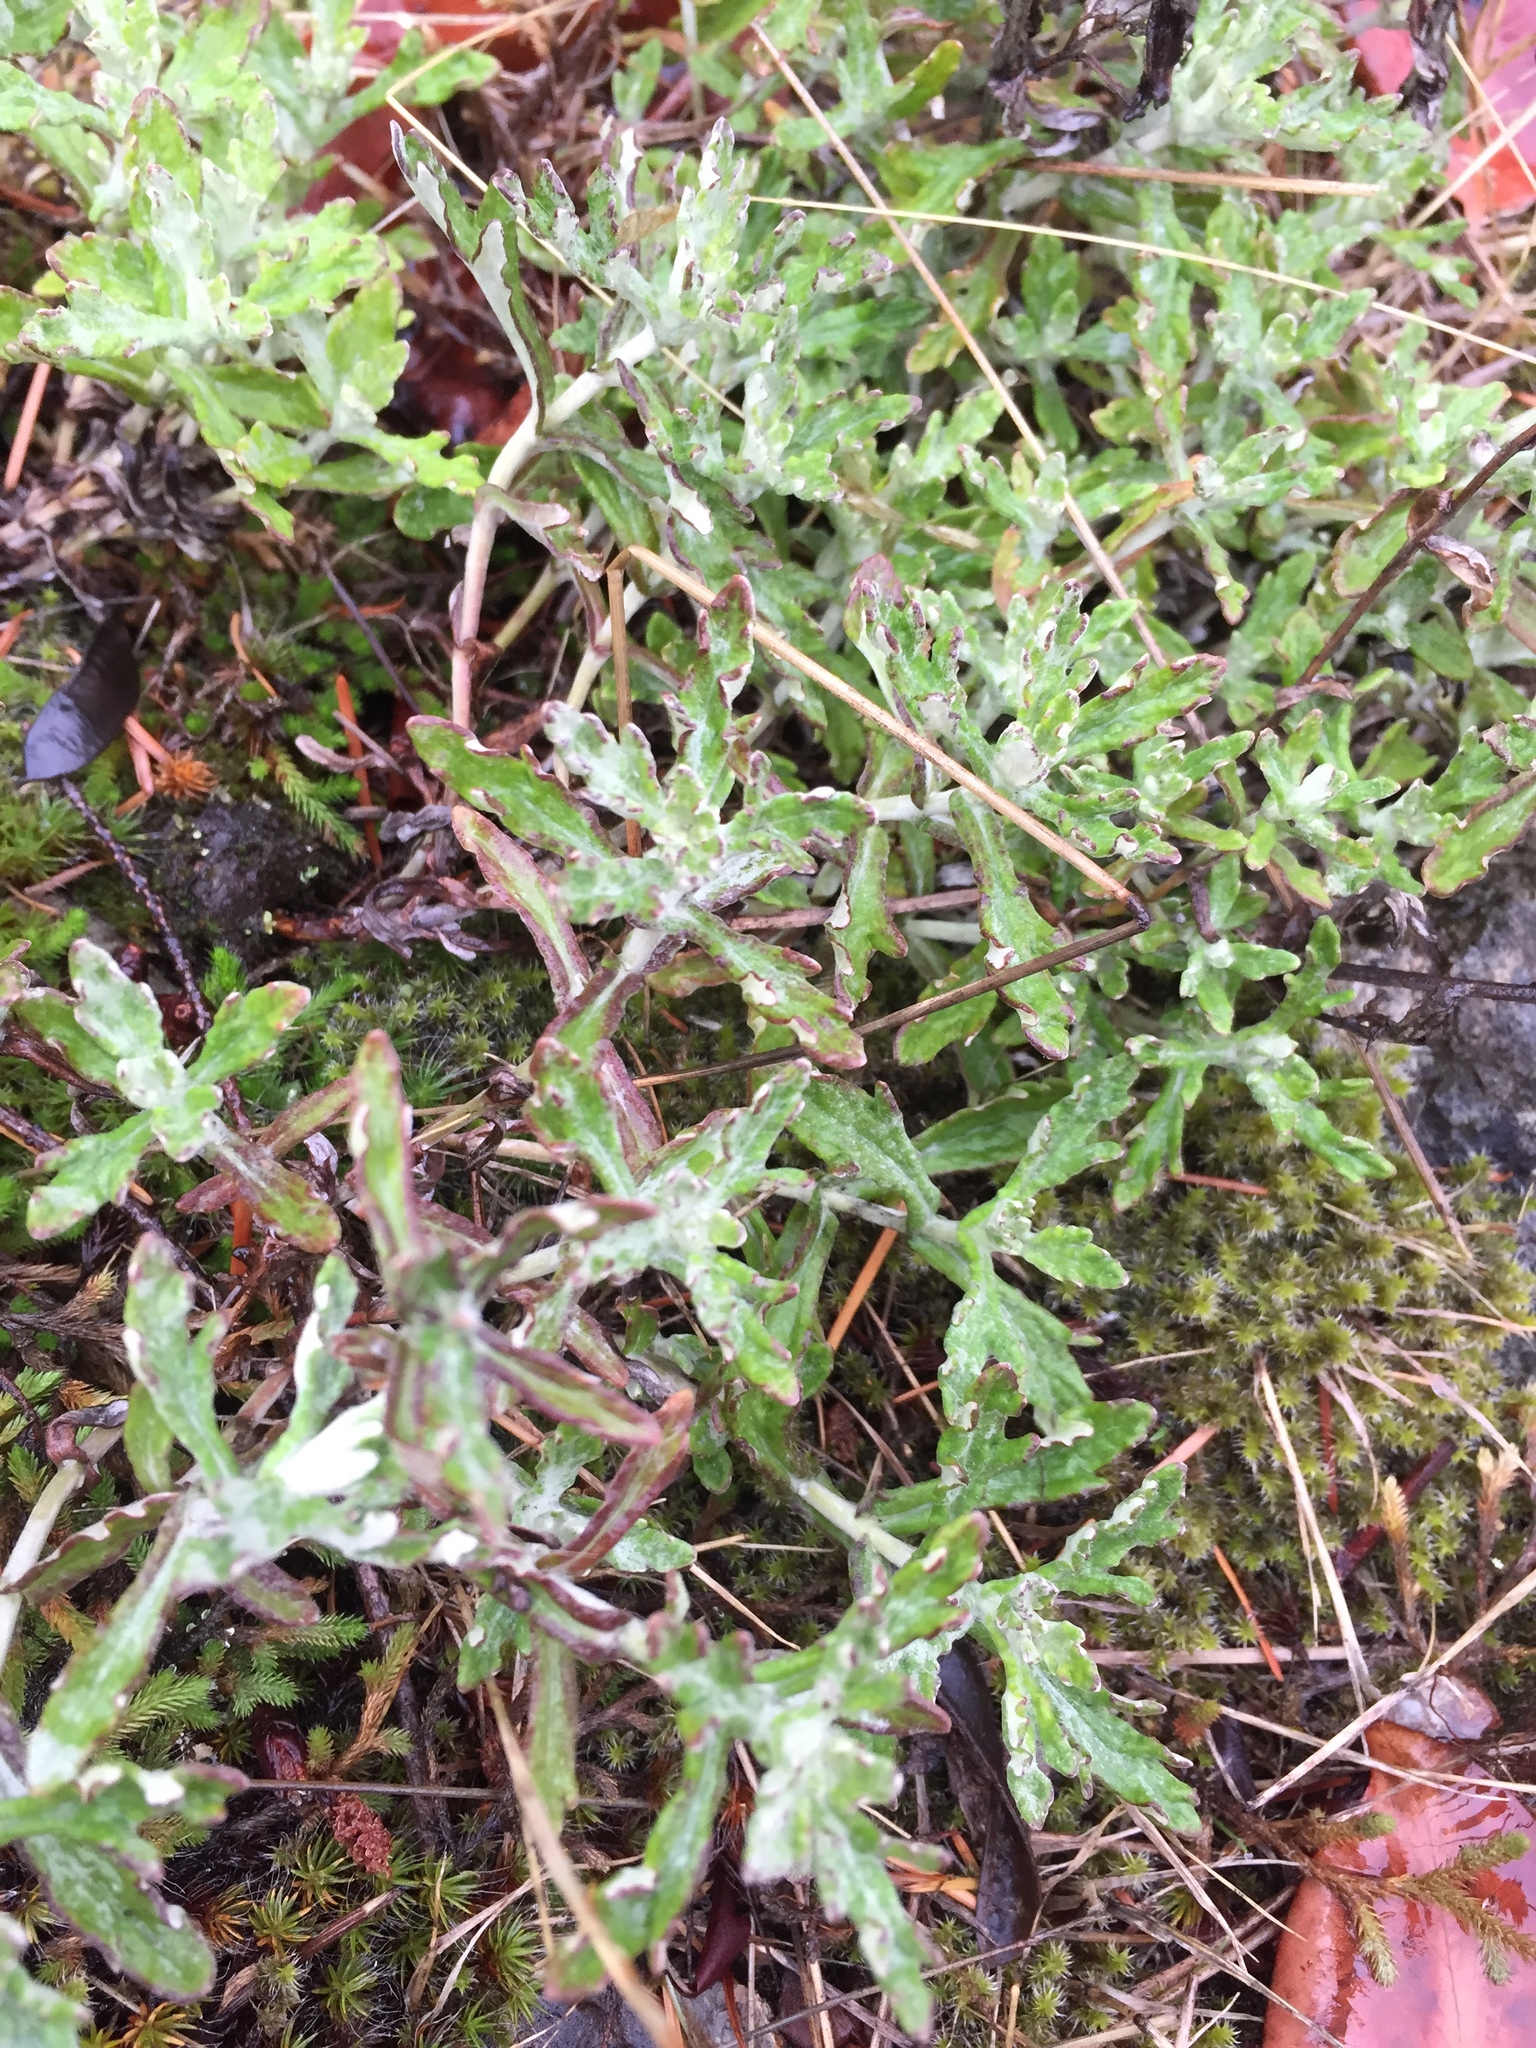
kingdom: Plantae
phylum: Tracheophyta
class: Magnoliopsida
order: Asterales
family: Asteraceae
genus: Eriophyllum
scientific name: Eriophyllum lanatum
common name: Common woolly-sunflower
